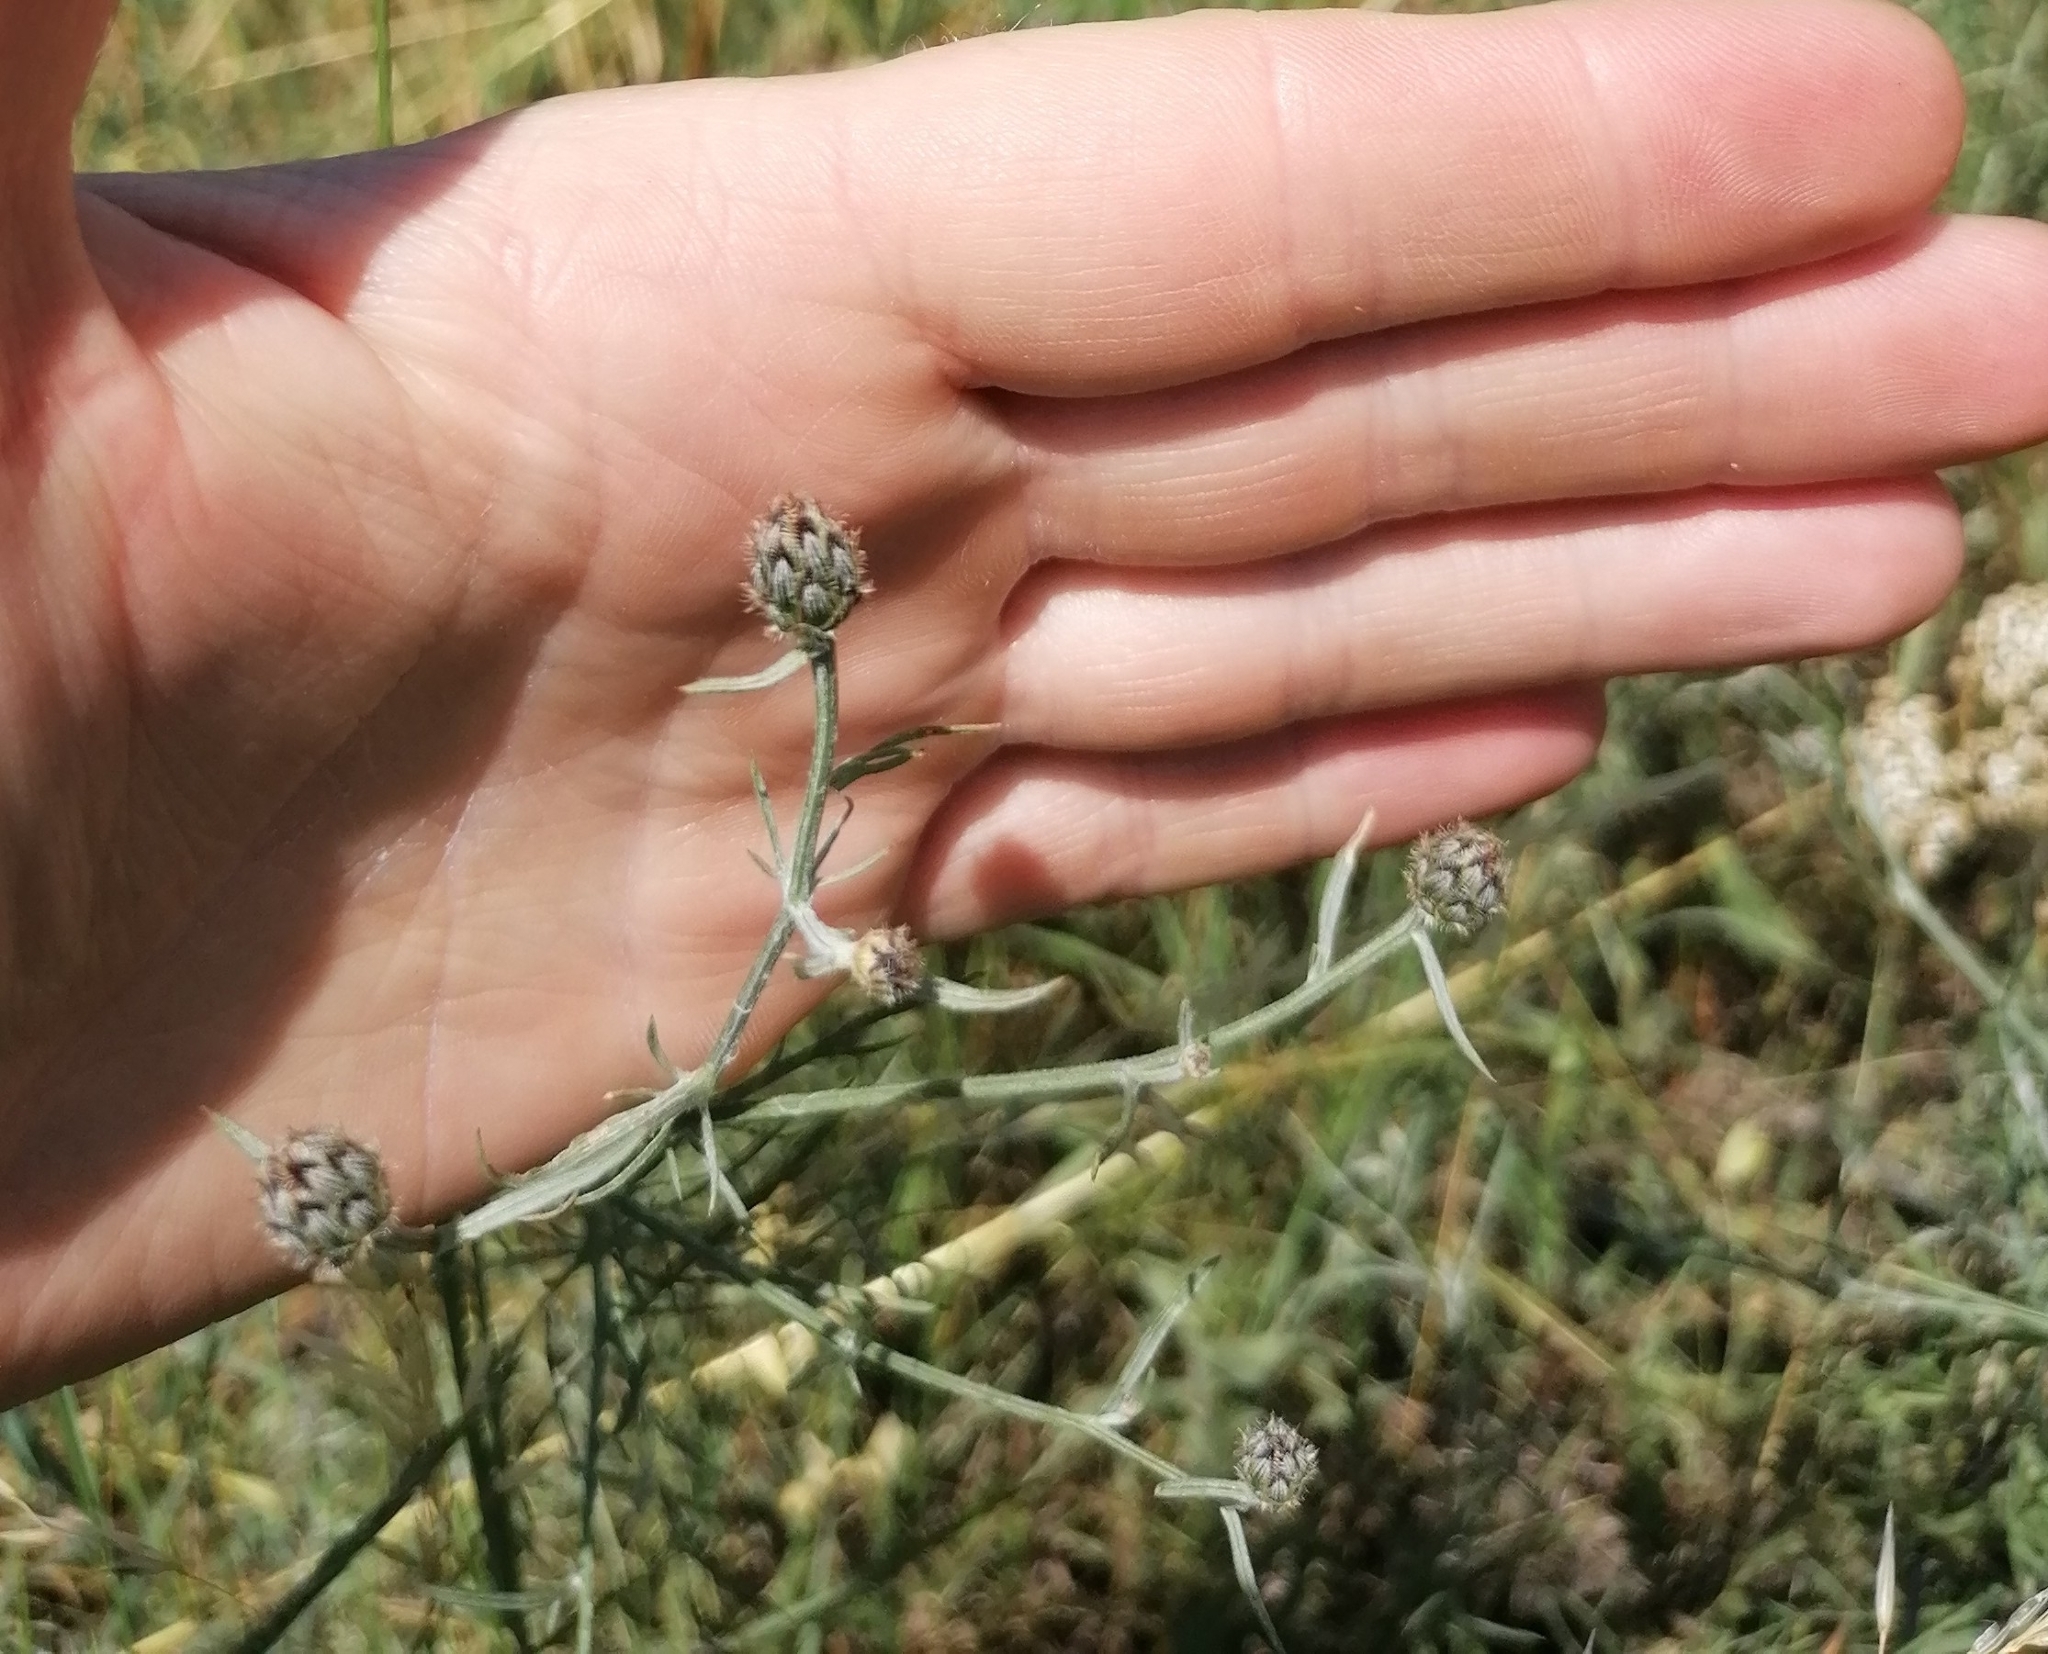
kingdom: Plantae
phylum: Tracheophyta
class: Magnoliopsida
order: Asterales
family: Asteraceae
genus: Centaurea
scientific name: Centaurea stoebe
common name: Spotted knapweed
